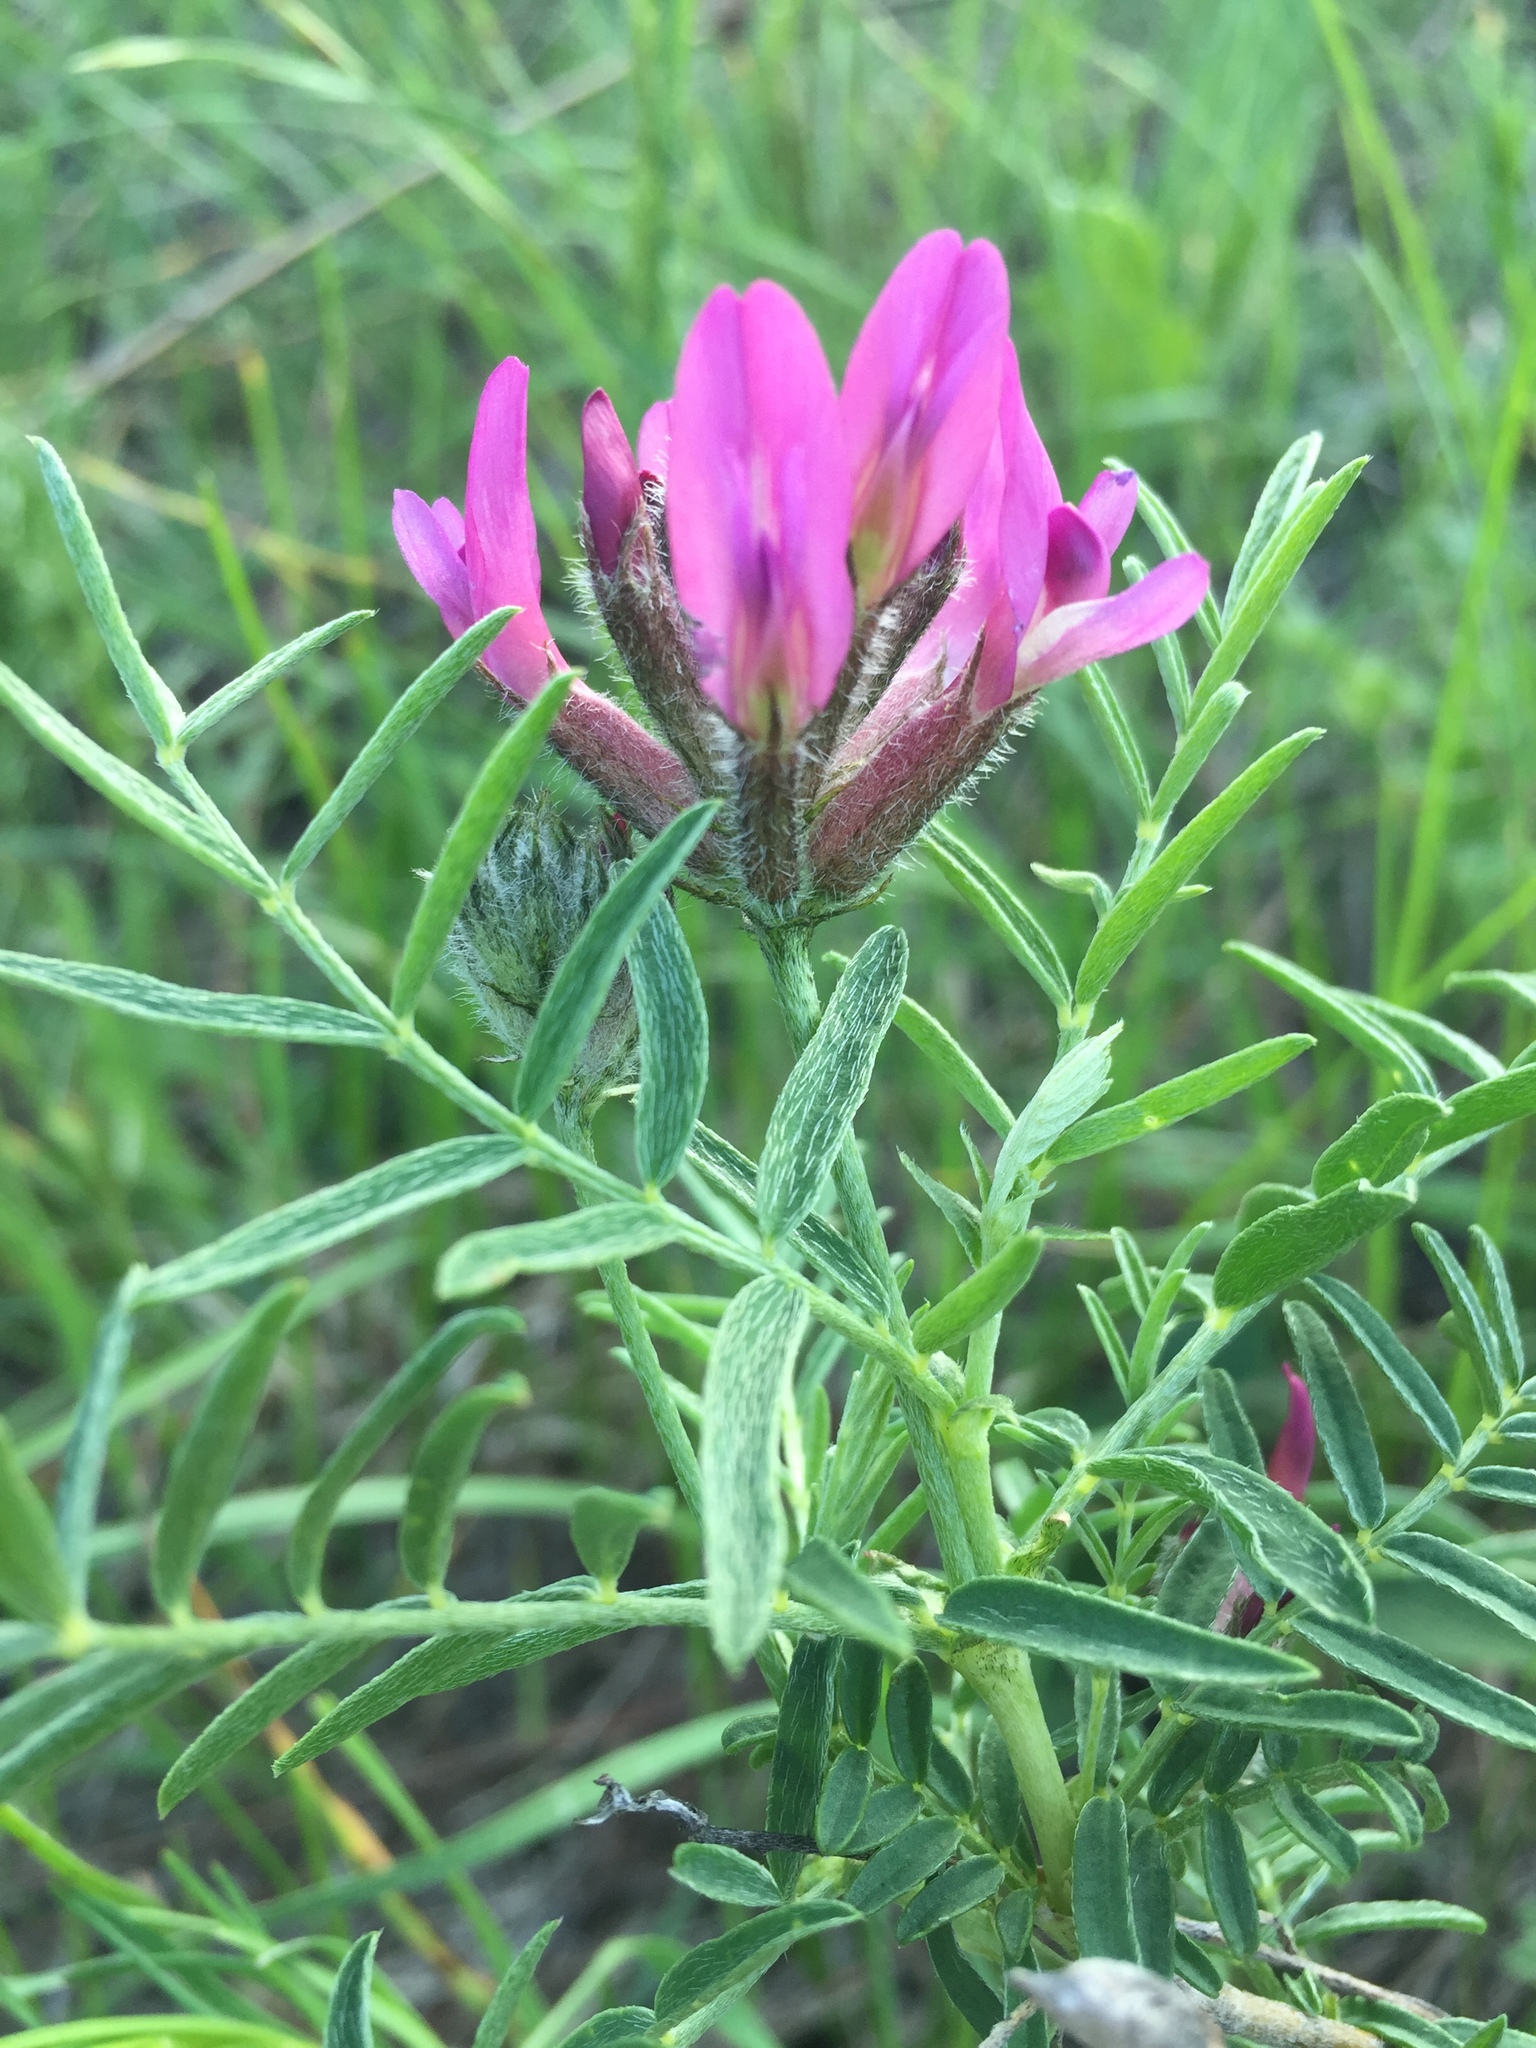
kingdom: Plantae
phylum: Tracheophyta
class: Magnoliopsida
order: Fabales
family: Fabaceae
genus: Astragalus
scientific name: Astragalus cornutus
